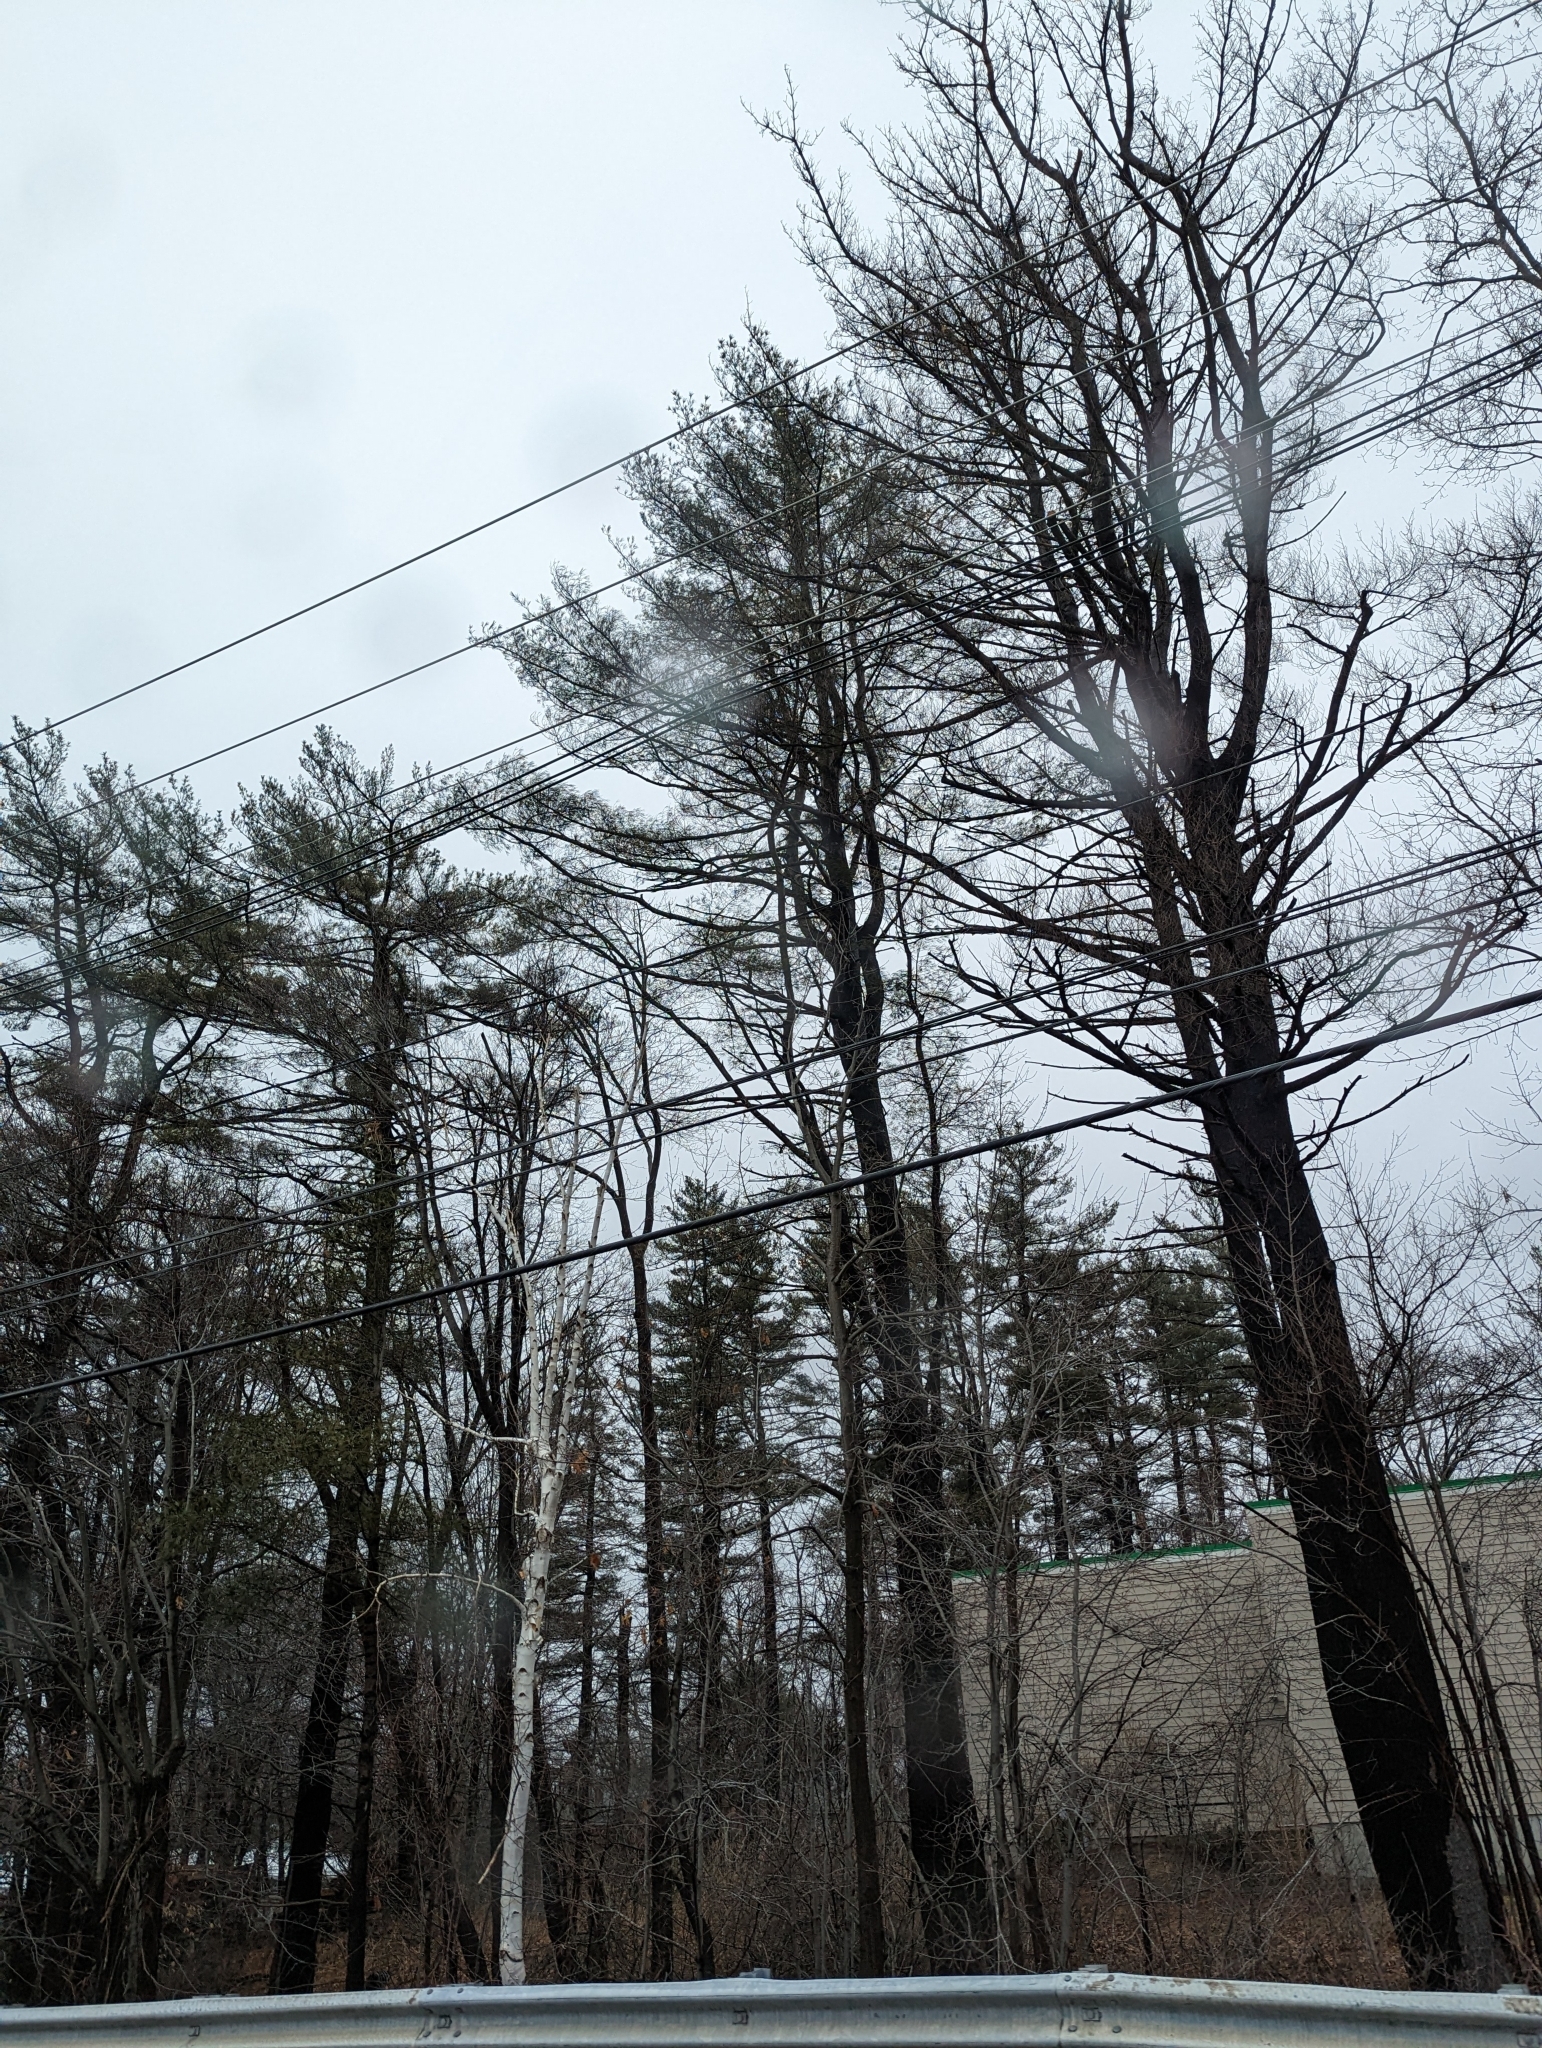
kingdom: Plantae
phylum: Tracheophyta
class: Pinopsida
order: Pinales
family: Pinaceae
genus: Pinus
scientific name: Pinus strobus
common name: Weymouth pine
